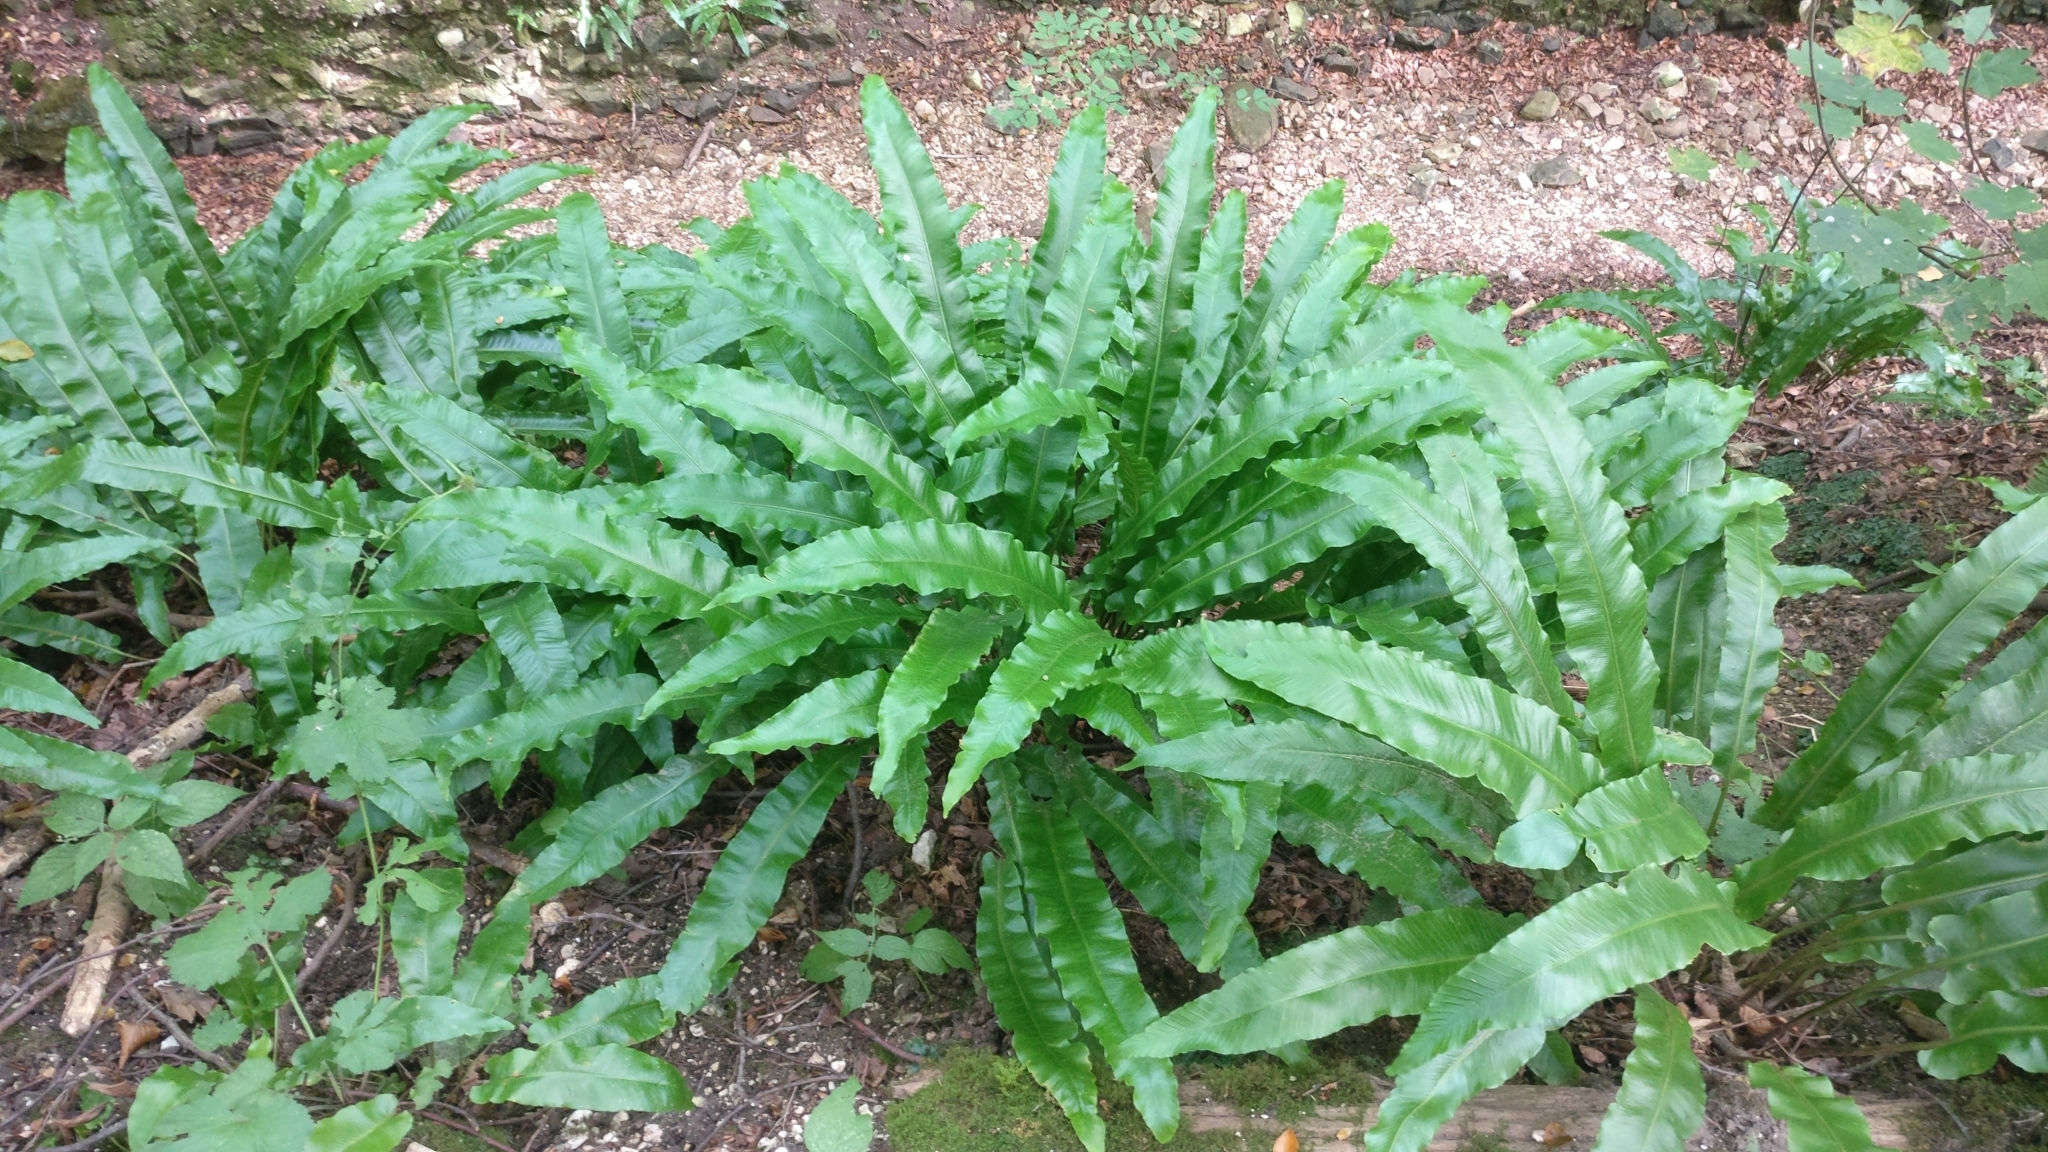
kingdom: Plantae
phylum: Tracheophyta
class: Polypodiopsida
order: Polypodiales
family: Aspleniaceae
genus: Asplenium
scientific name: Asplenium scolopendrium
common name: Hart's-tongue fern
